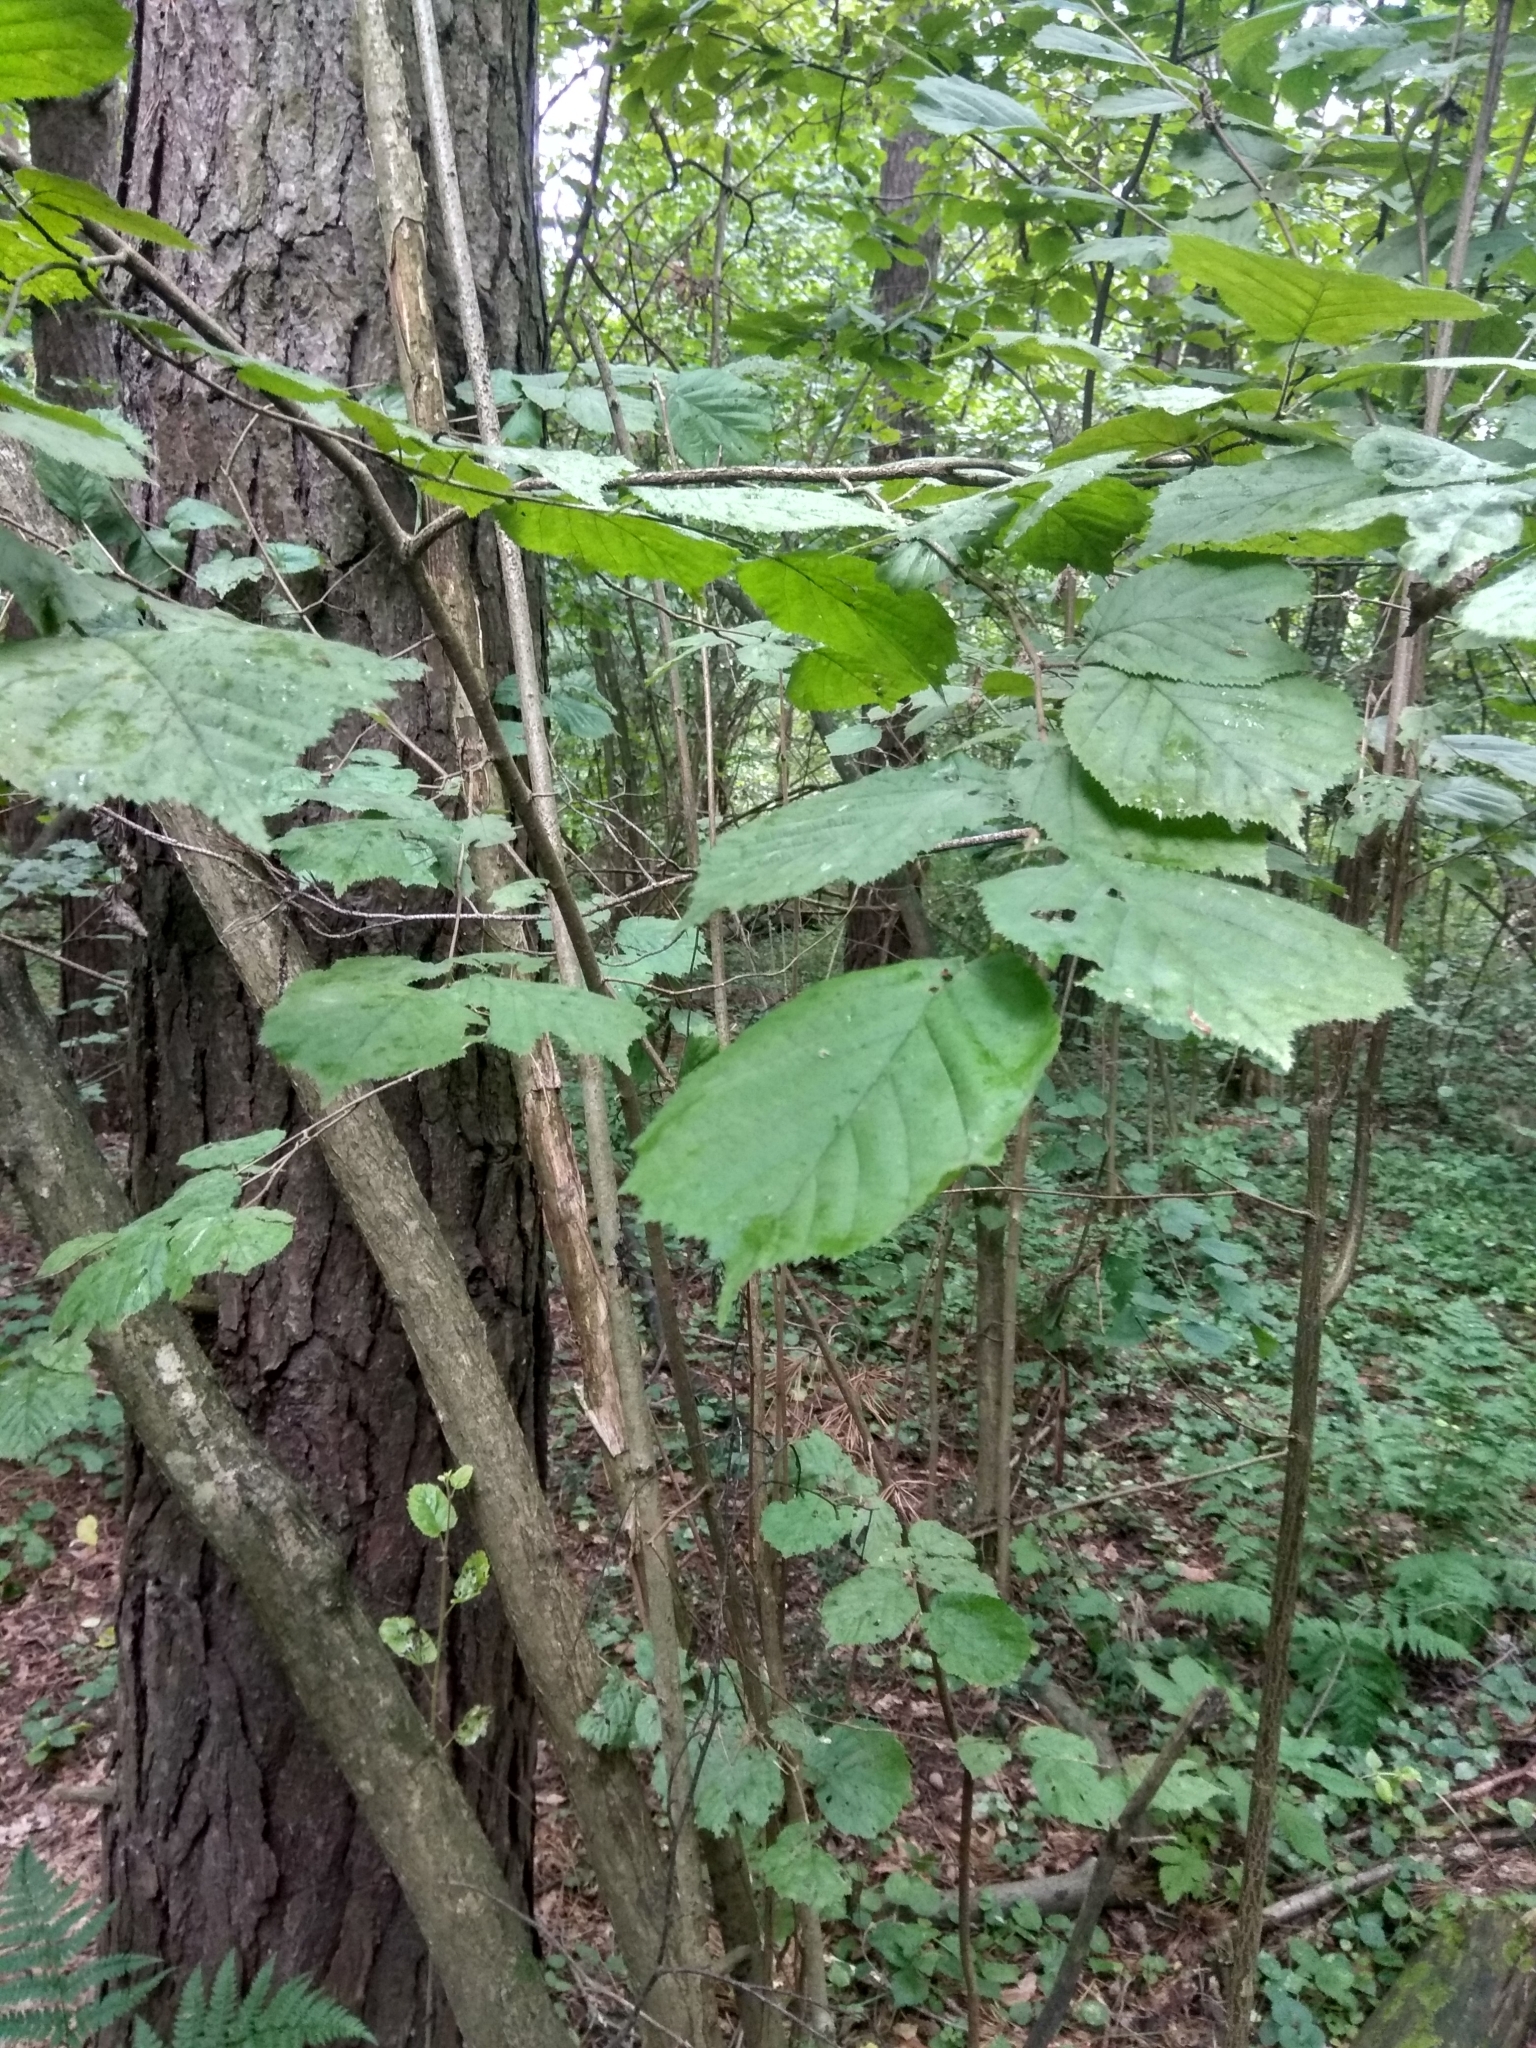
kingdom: Plantae
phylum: Tracheophyta
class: Magnoliopsida
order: Fagales
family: Betulaceae
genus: Corylus
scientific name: Corylus avellana
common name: European hazel
